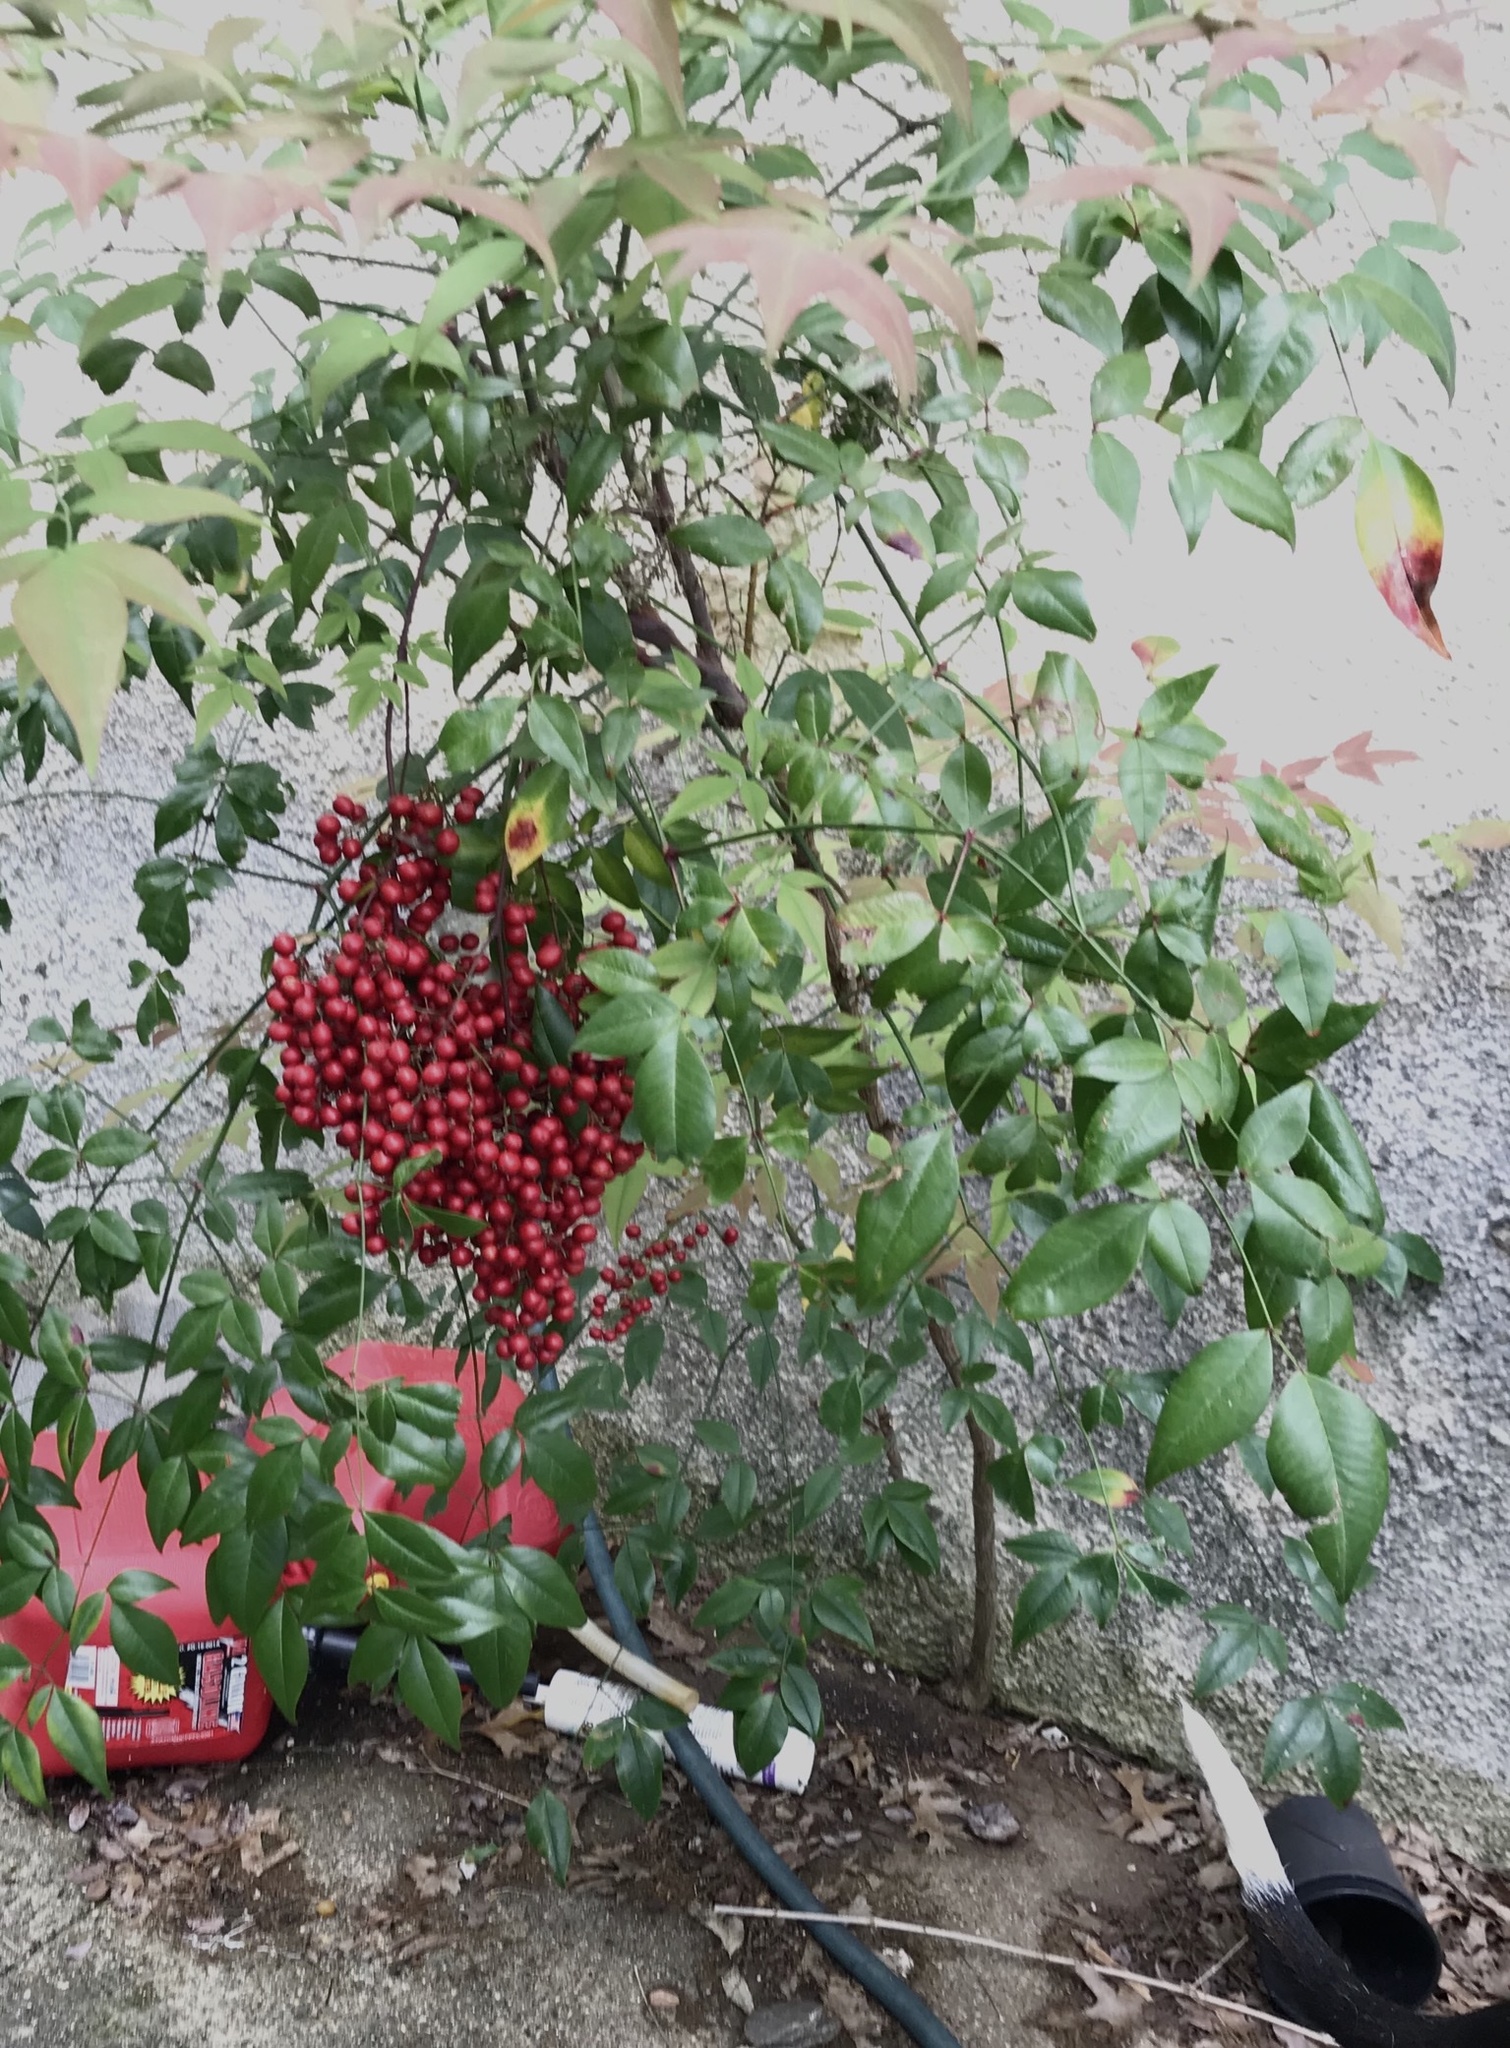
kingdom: Plantae
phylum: Tracheophyta
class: Magnoliopsida
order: Ranunculales
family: Berberidaceae
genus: Nandina
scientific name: Nandina domestica
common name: Sacred bamboo
